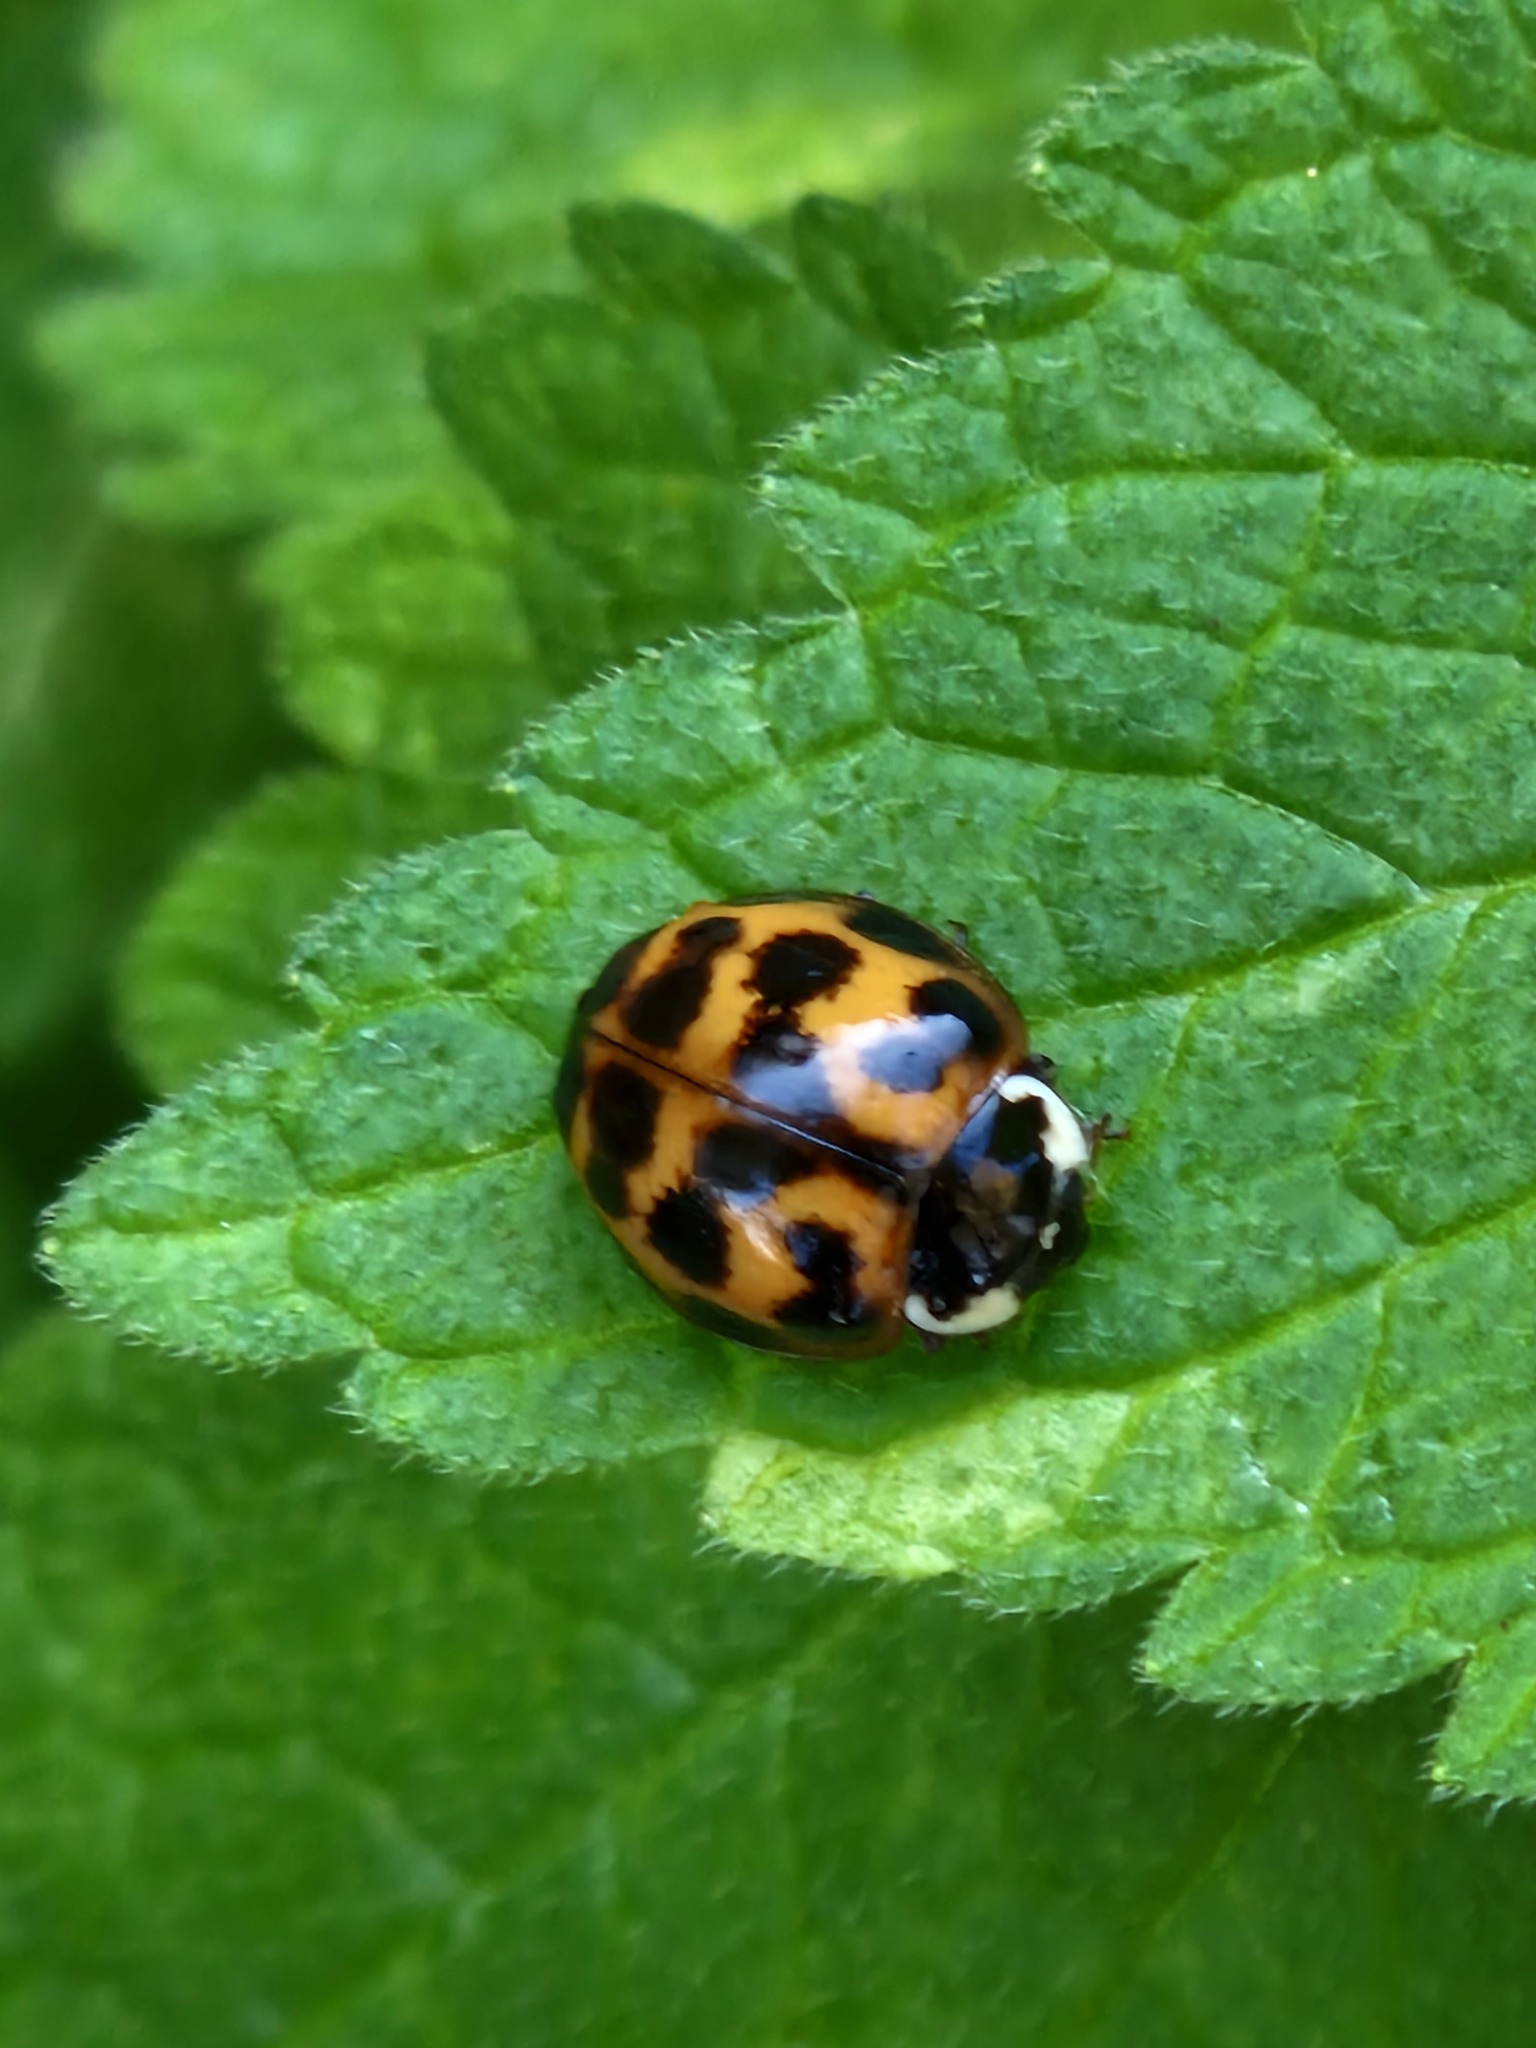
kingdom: Animalia
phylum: Arthropoda
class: Insecta
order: Coleoptera
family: Coccinellidae
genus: Harmonia
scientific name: Harmonia axyridis
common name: Harlequin ladybird
